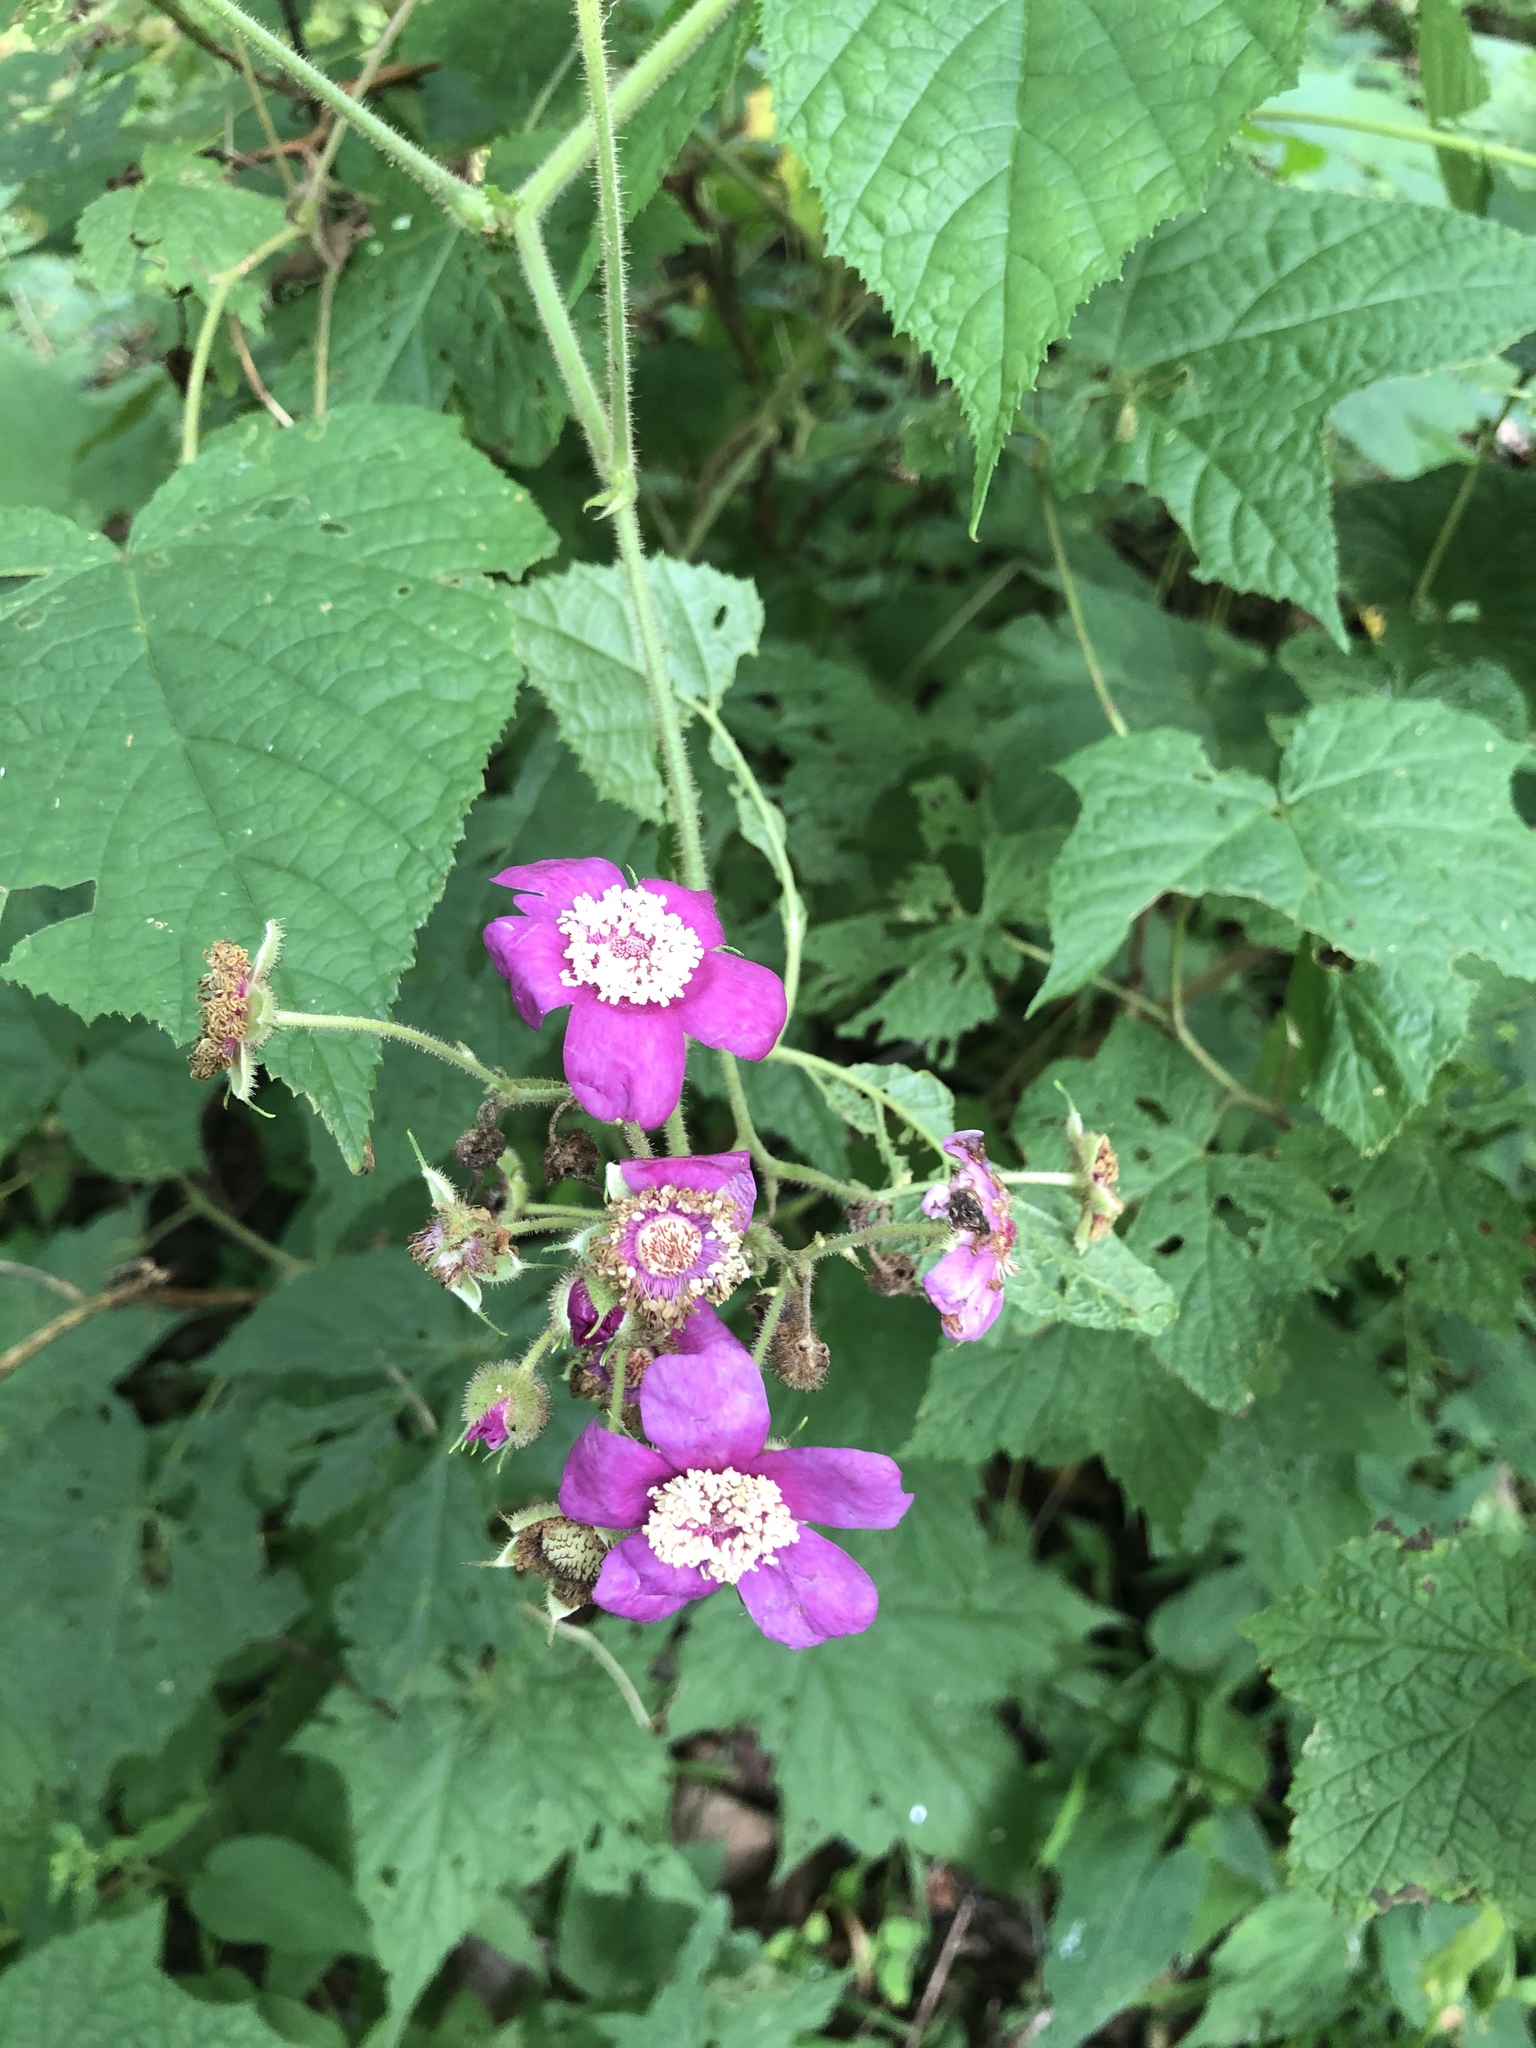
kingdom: Plantae
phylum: Tracheophyta
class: Magnoliopsida
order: Rosales
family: Rosaceae
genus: Rubus
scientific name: Rubus odoratus
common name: Purple-flowered raspberry
